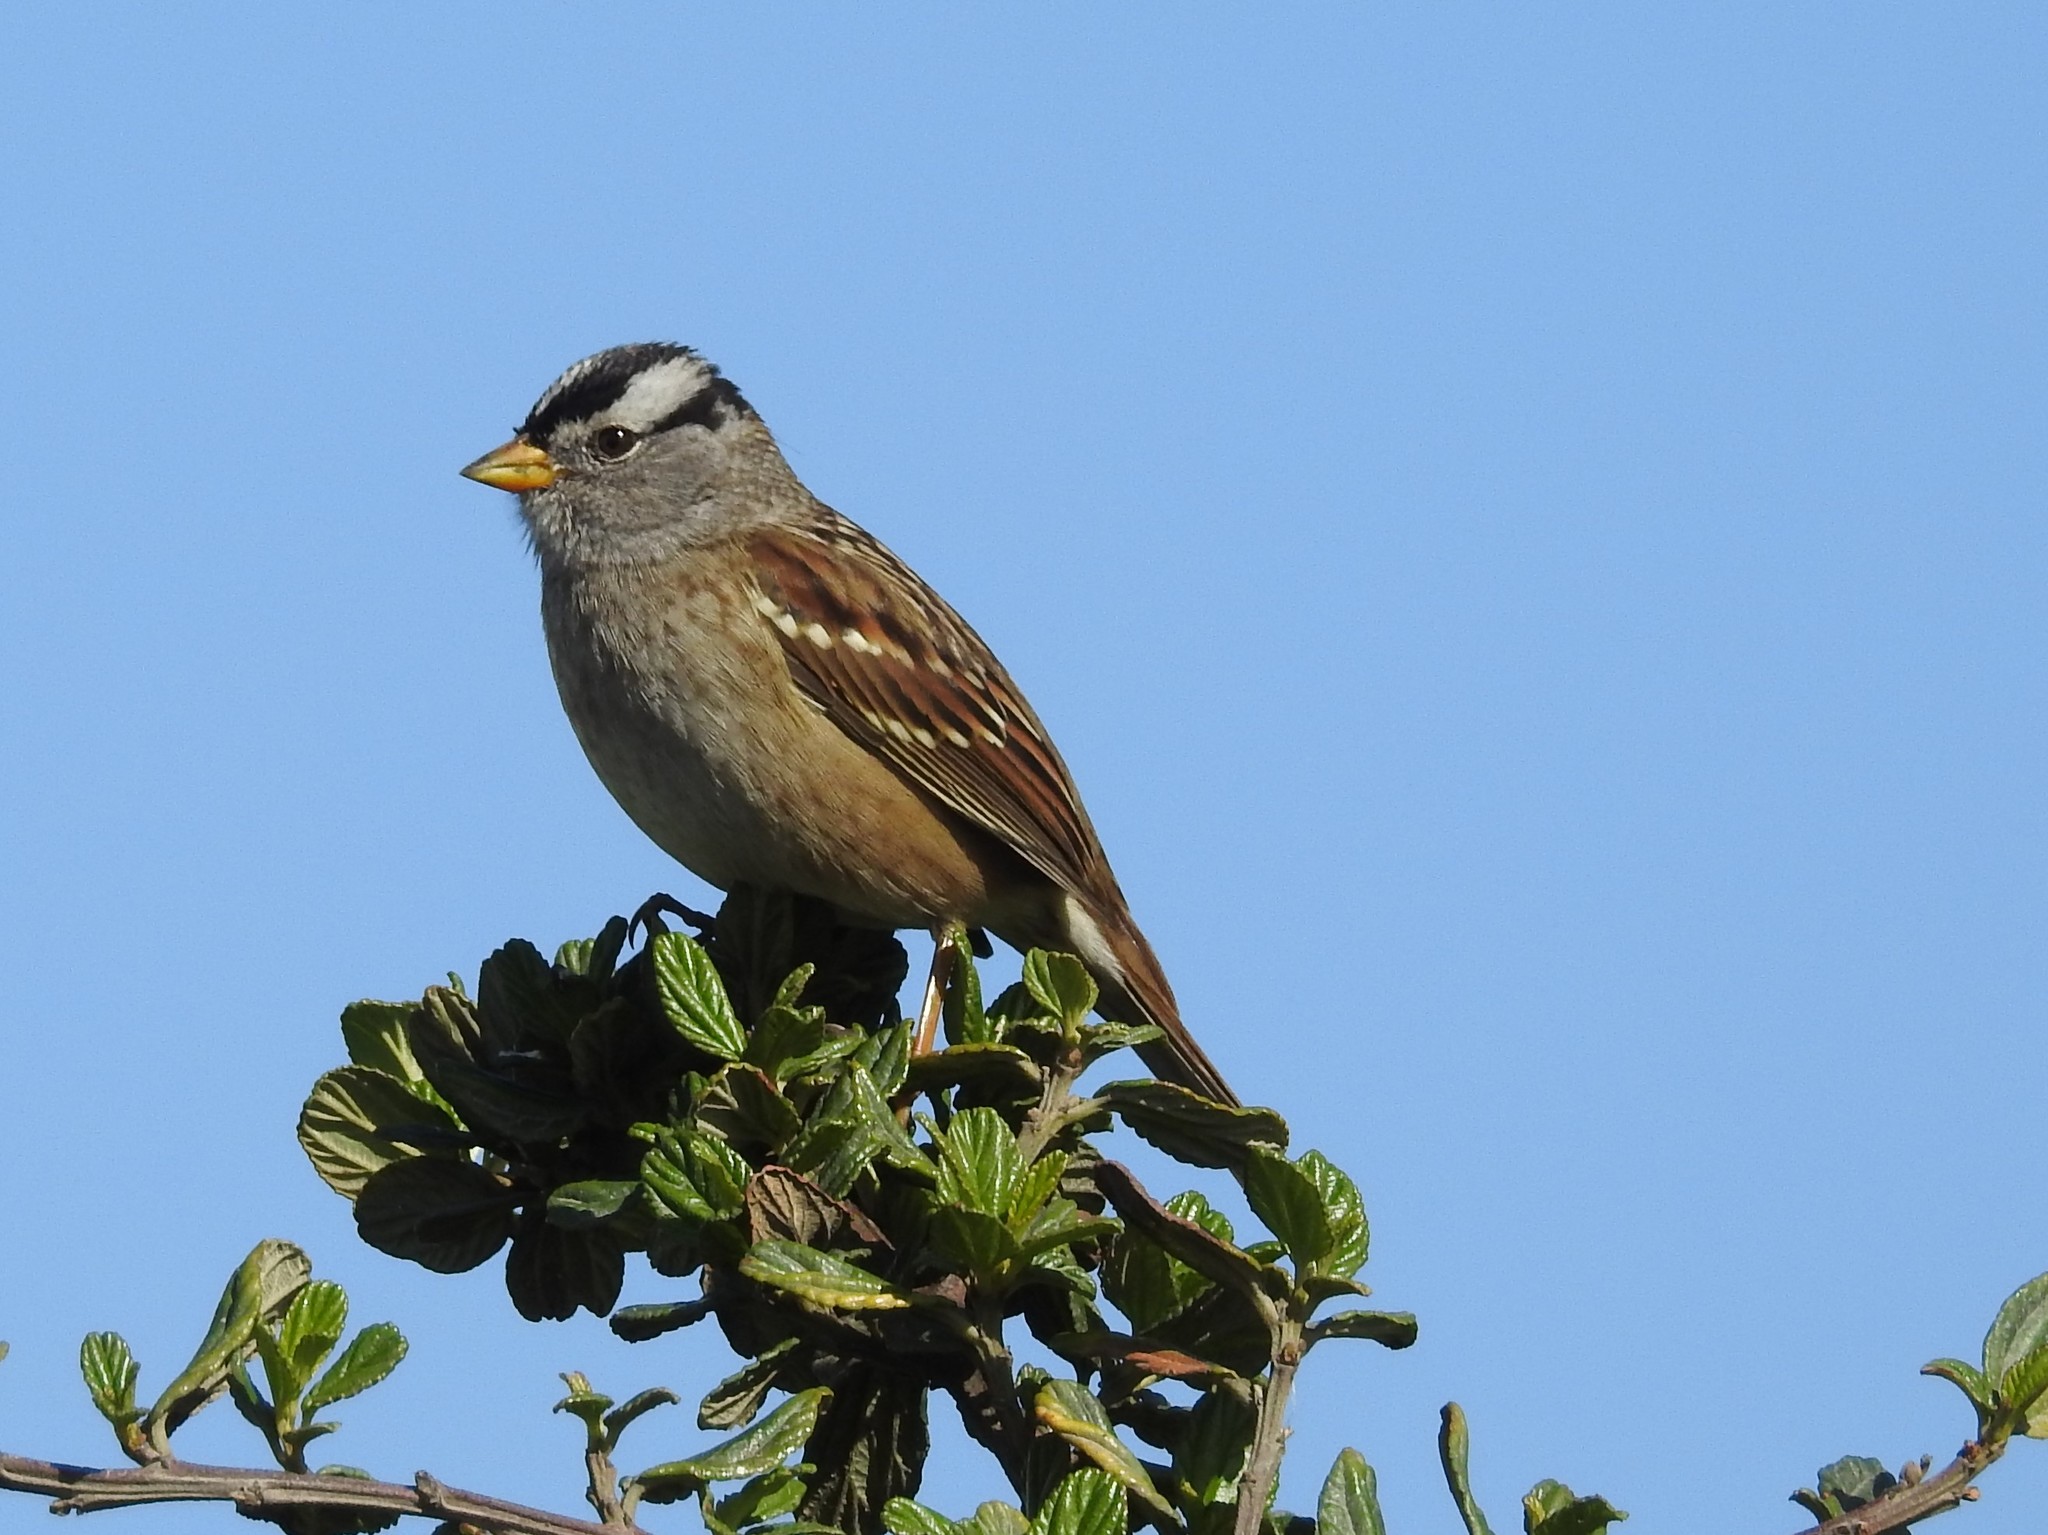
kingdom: Animalia
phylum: Chordata
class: Aves
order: Passeriformes
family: Passerellidae
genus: Zonotrichia
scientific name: Zonotrichia leucophrys
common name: White-crowned sparrow
